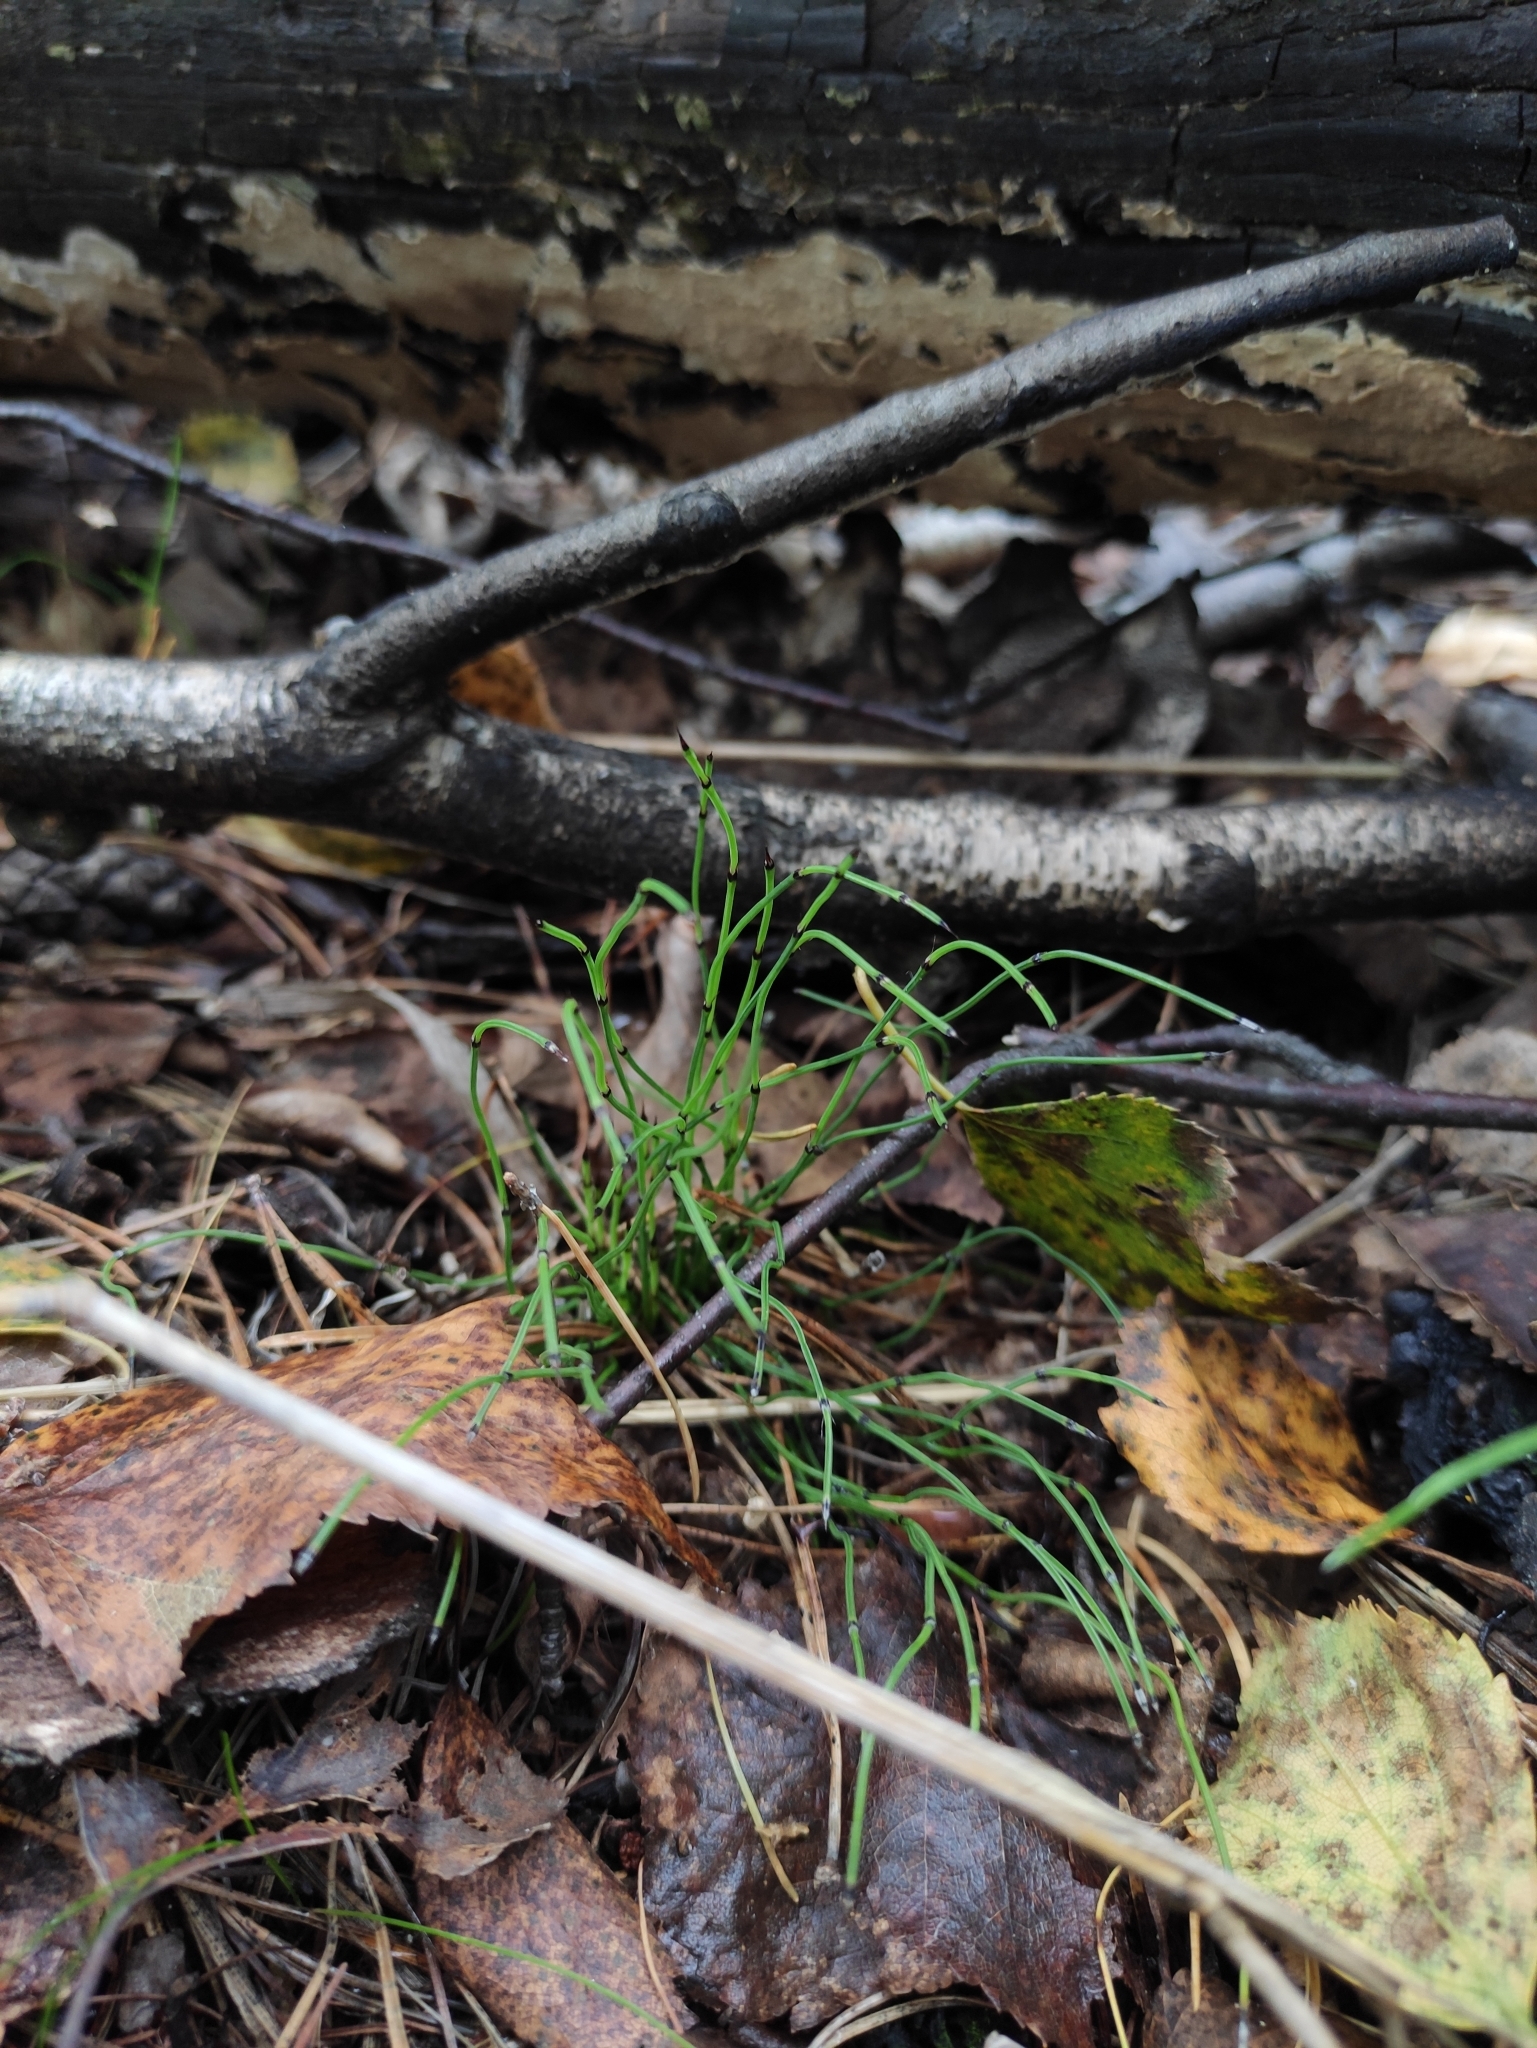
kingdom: Plantae
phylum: Tracheophyta
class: Polypodiopsida
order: Equisetales
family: Equisetaceae
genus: Equisetum
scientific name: Equisetum scirpoides
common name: Delicate horsetail
